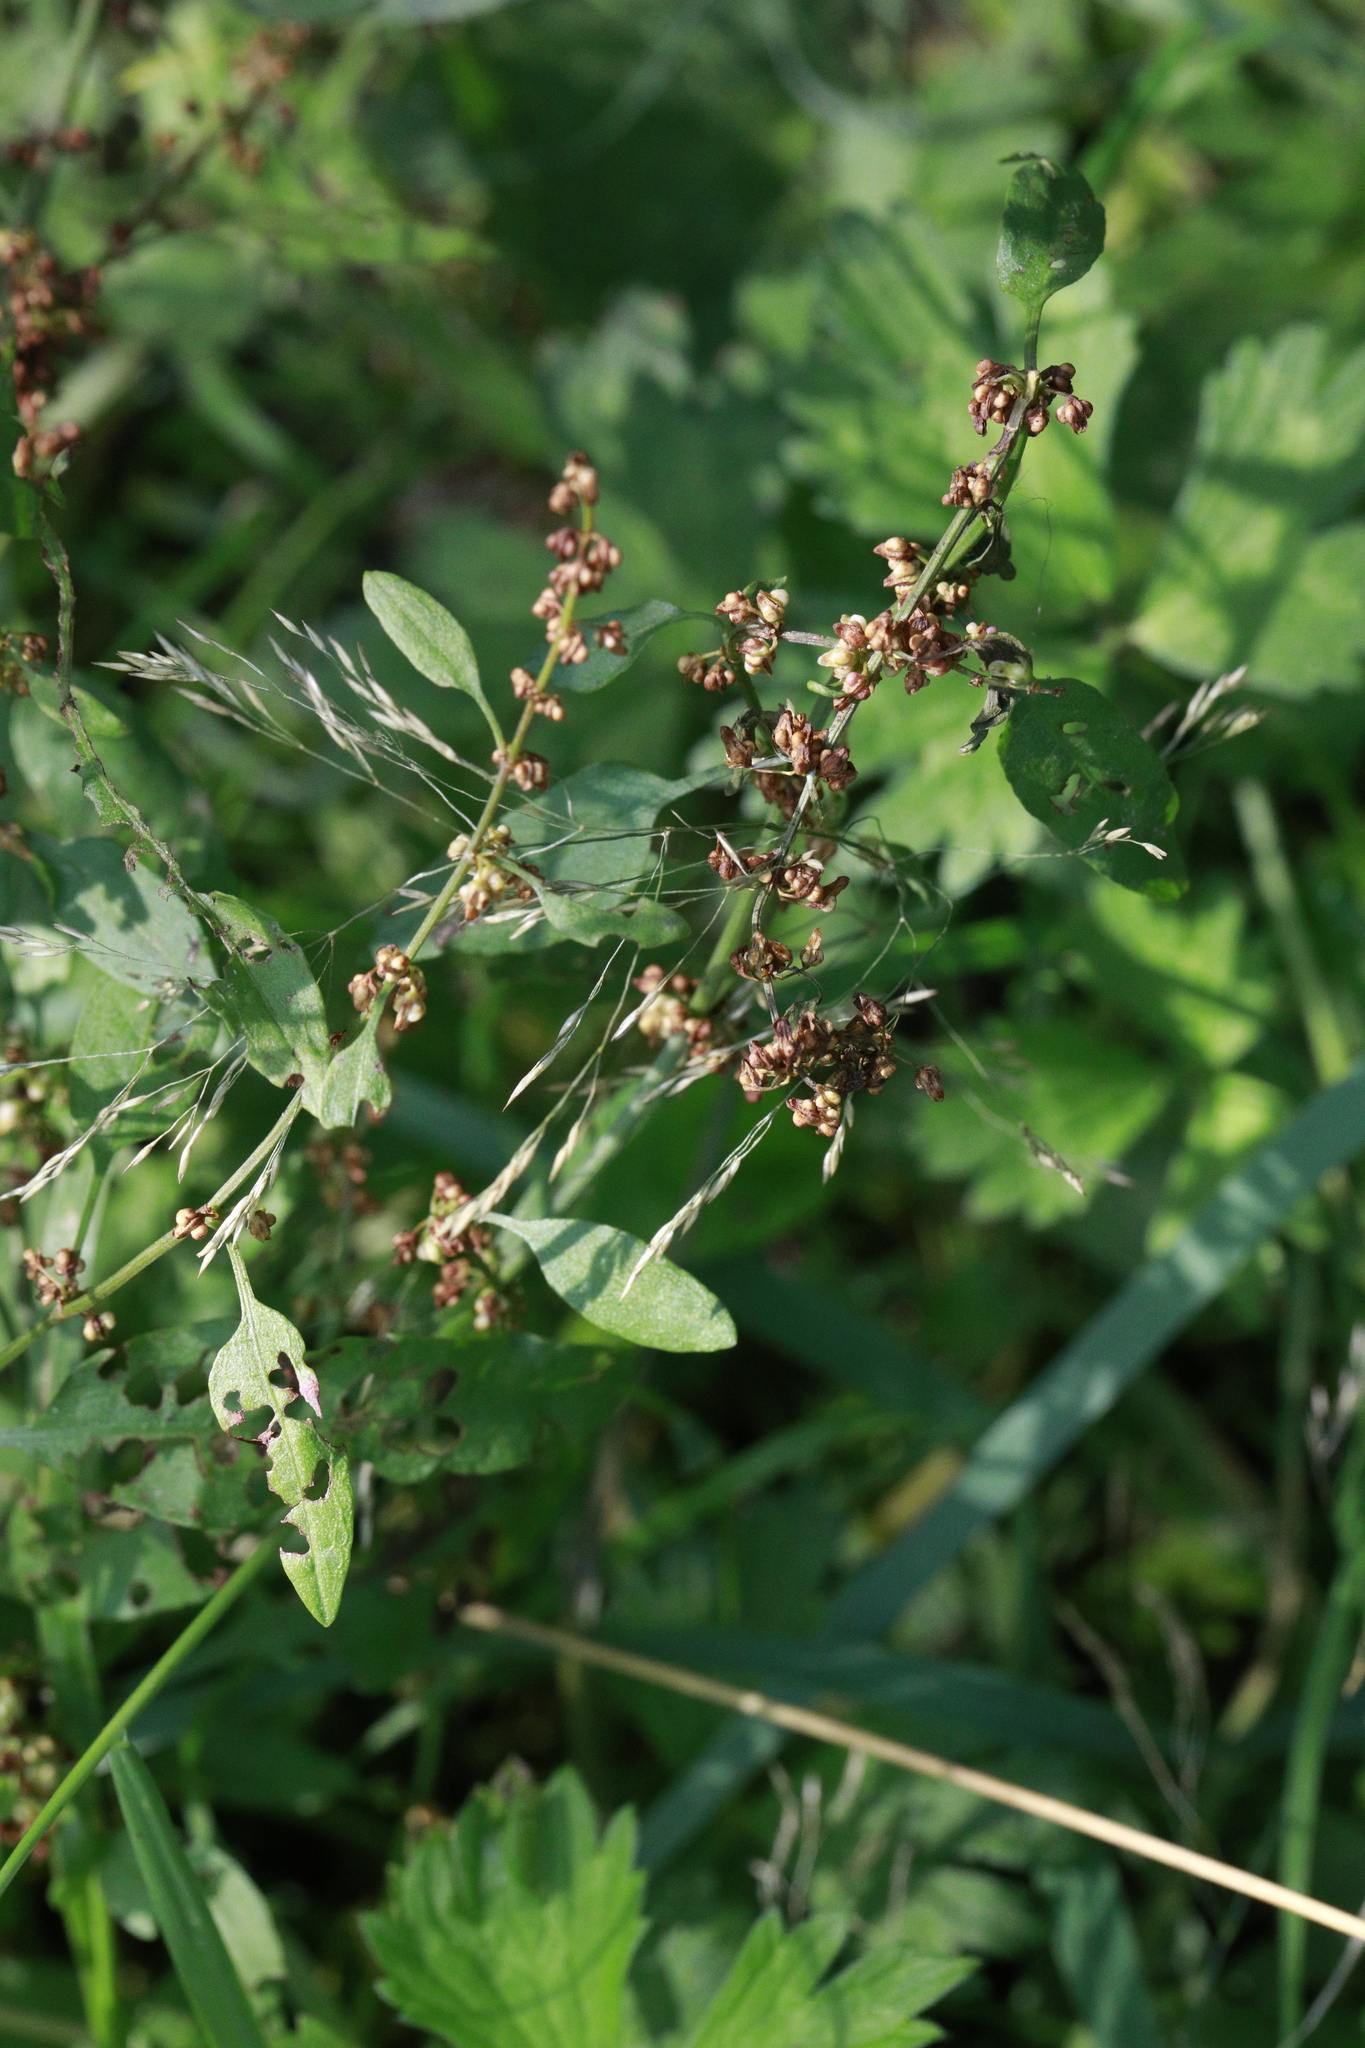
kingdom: Plantae
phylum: Tracheophyta
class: Magnoliopsida
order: Caryophyllales
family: Polygonaceae
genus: Rumex
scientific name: Rumex conglomeratus
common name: Clustered dock
